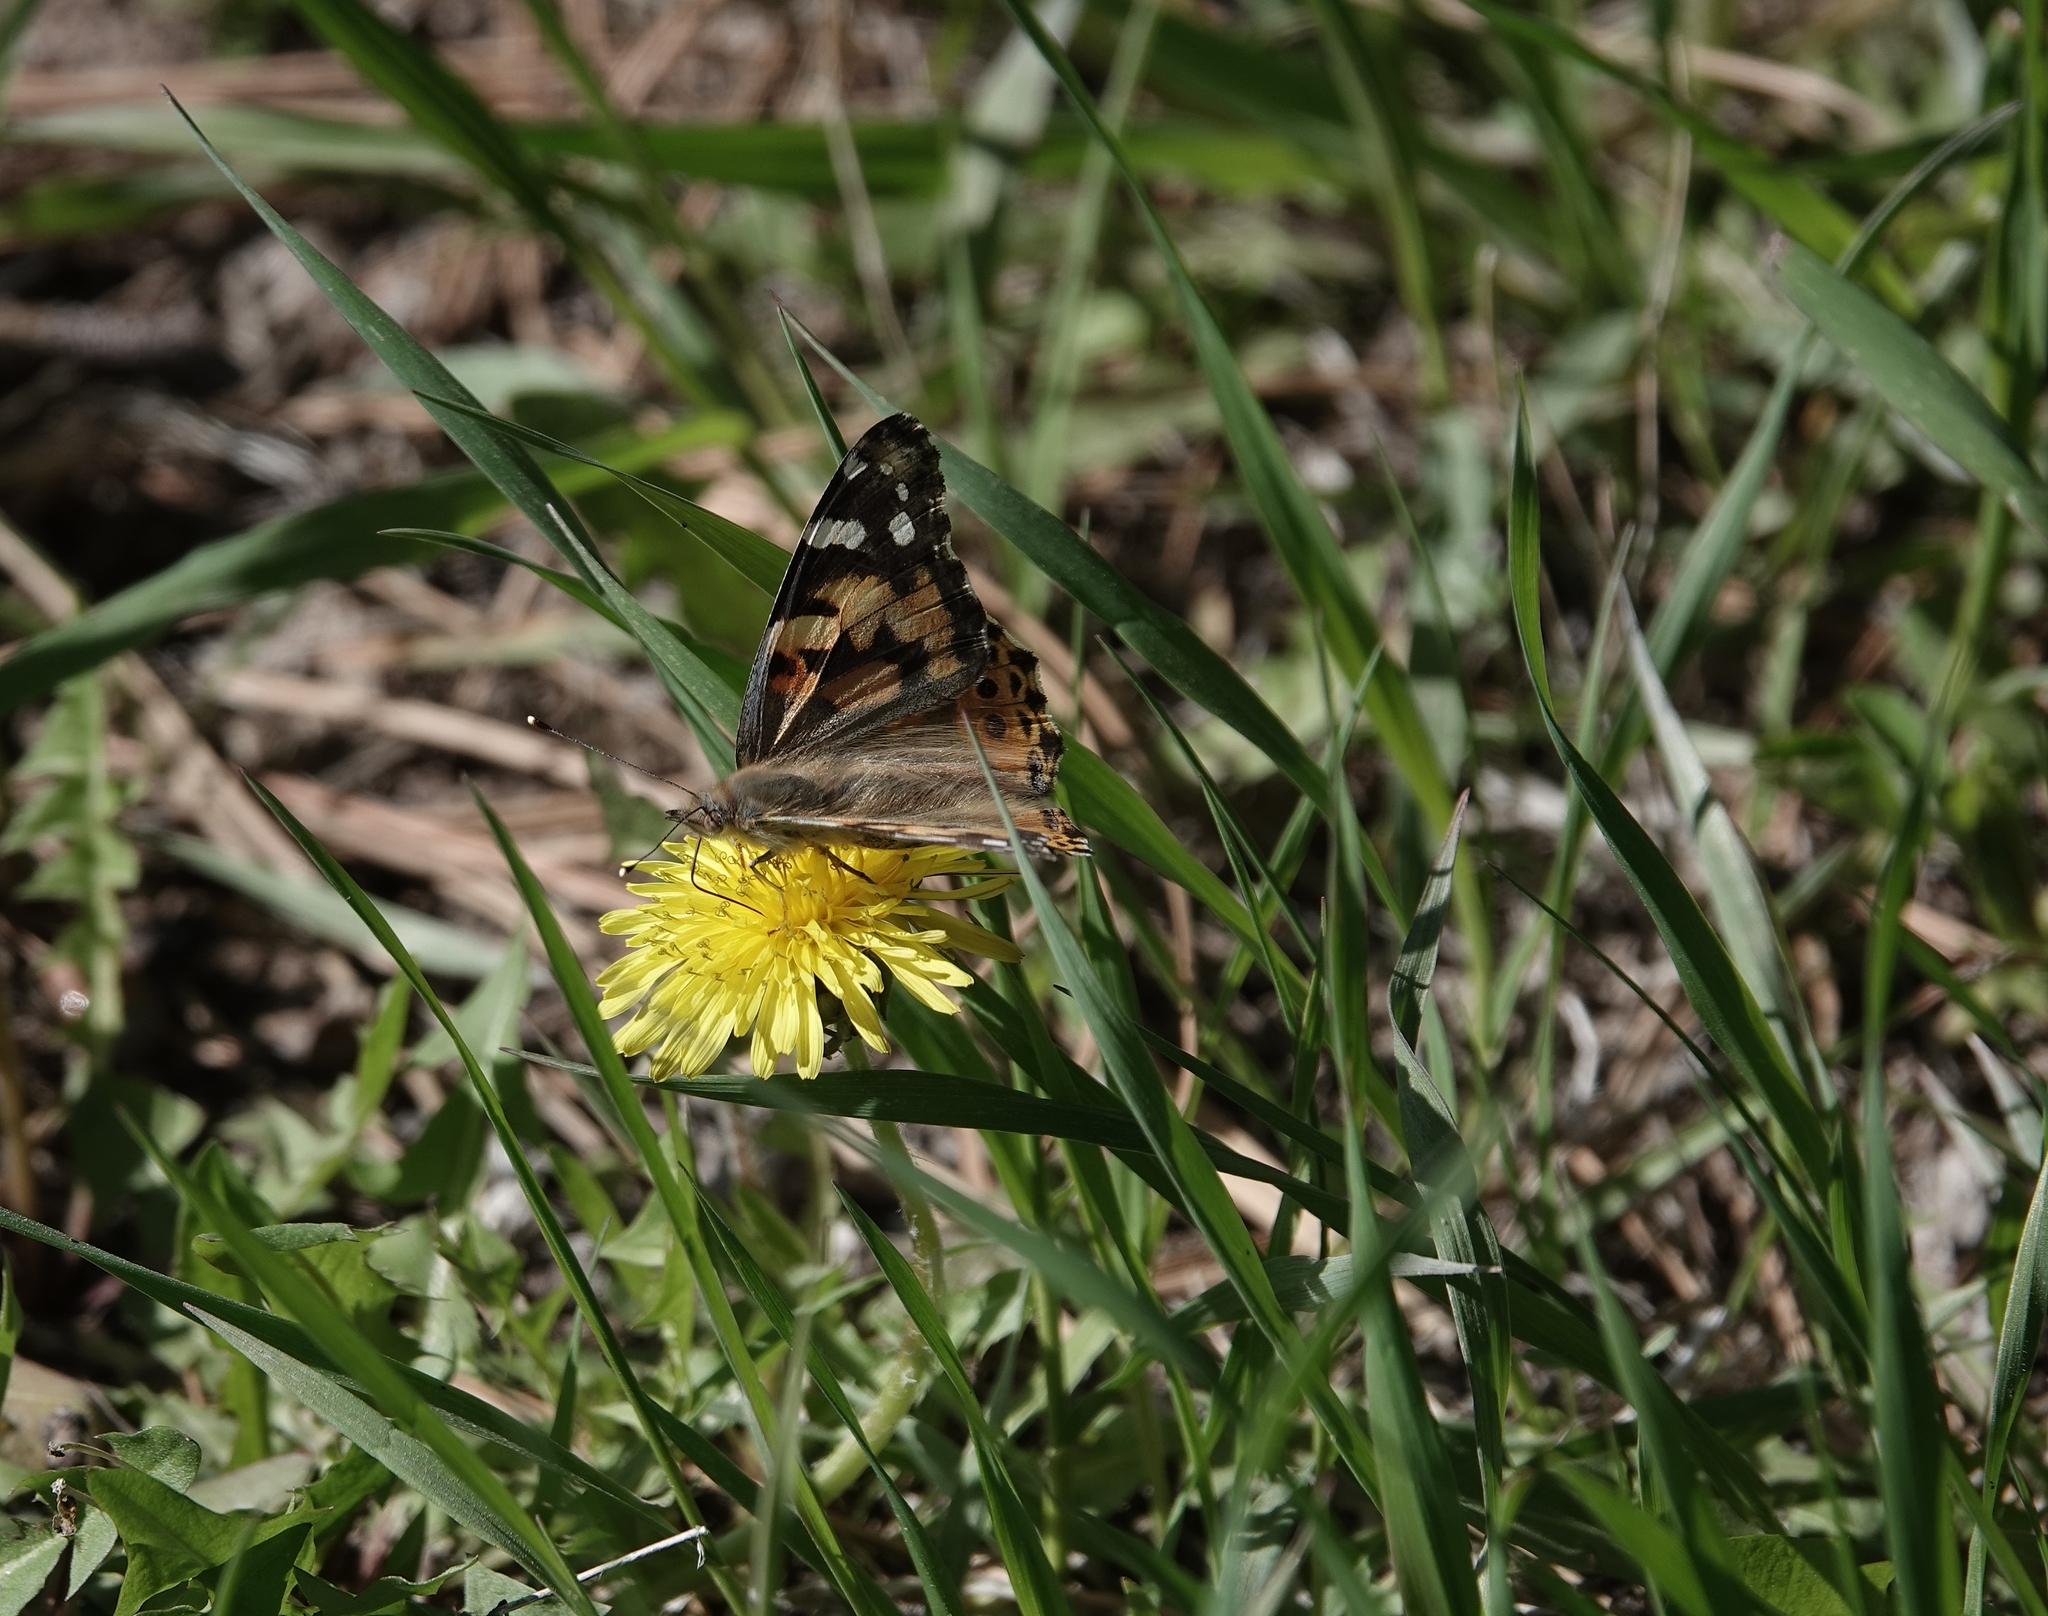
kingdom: Animalia
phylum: Arthropoda
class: Insecta
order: Lepidoptera
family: Nymphalidae
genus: Vanessa
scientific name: Vanessa cardui
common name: Painted lady
